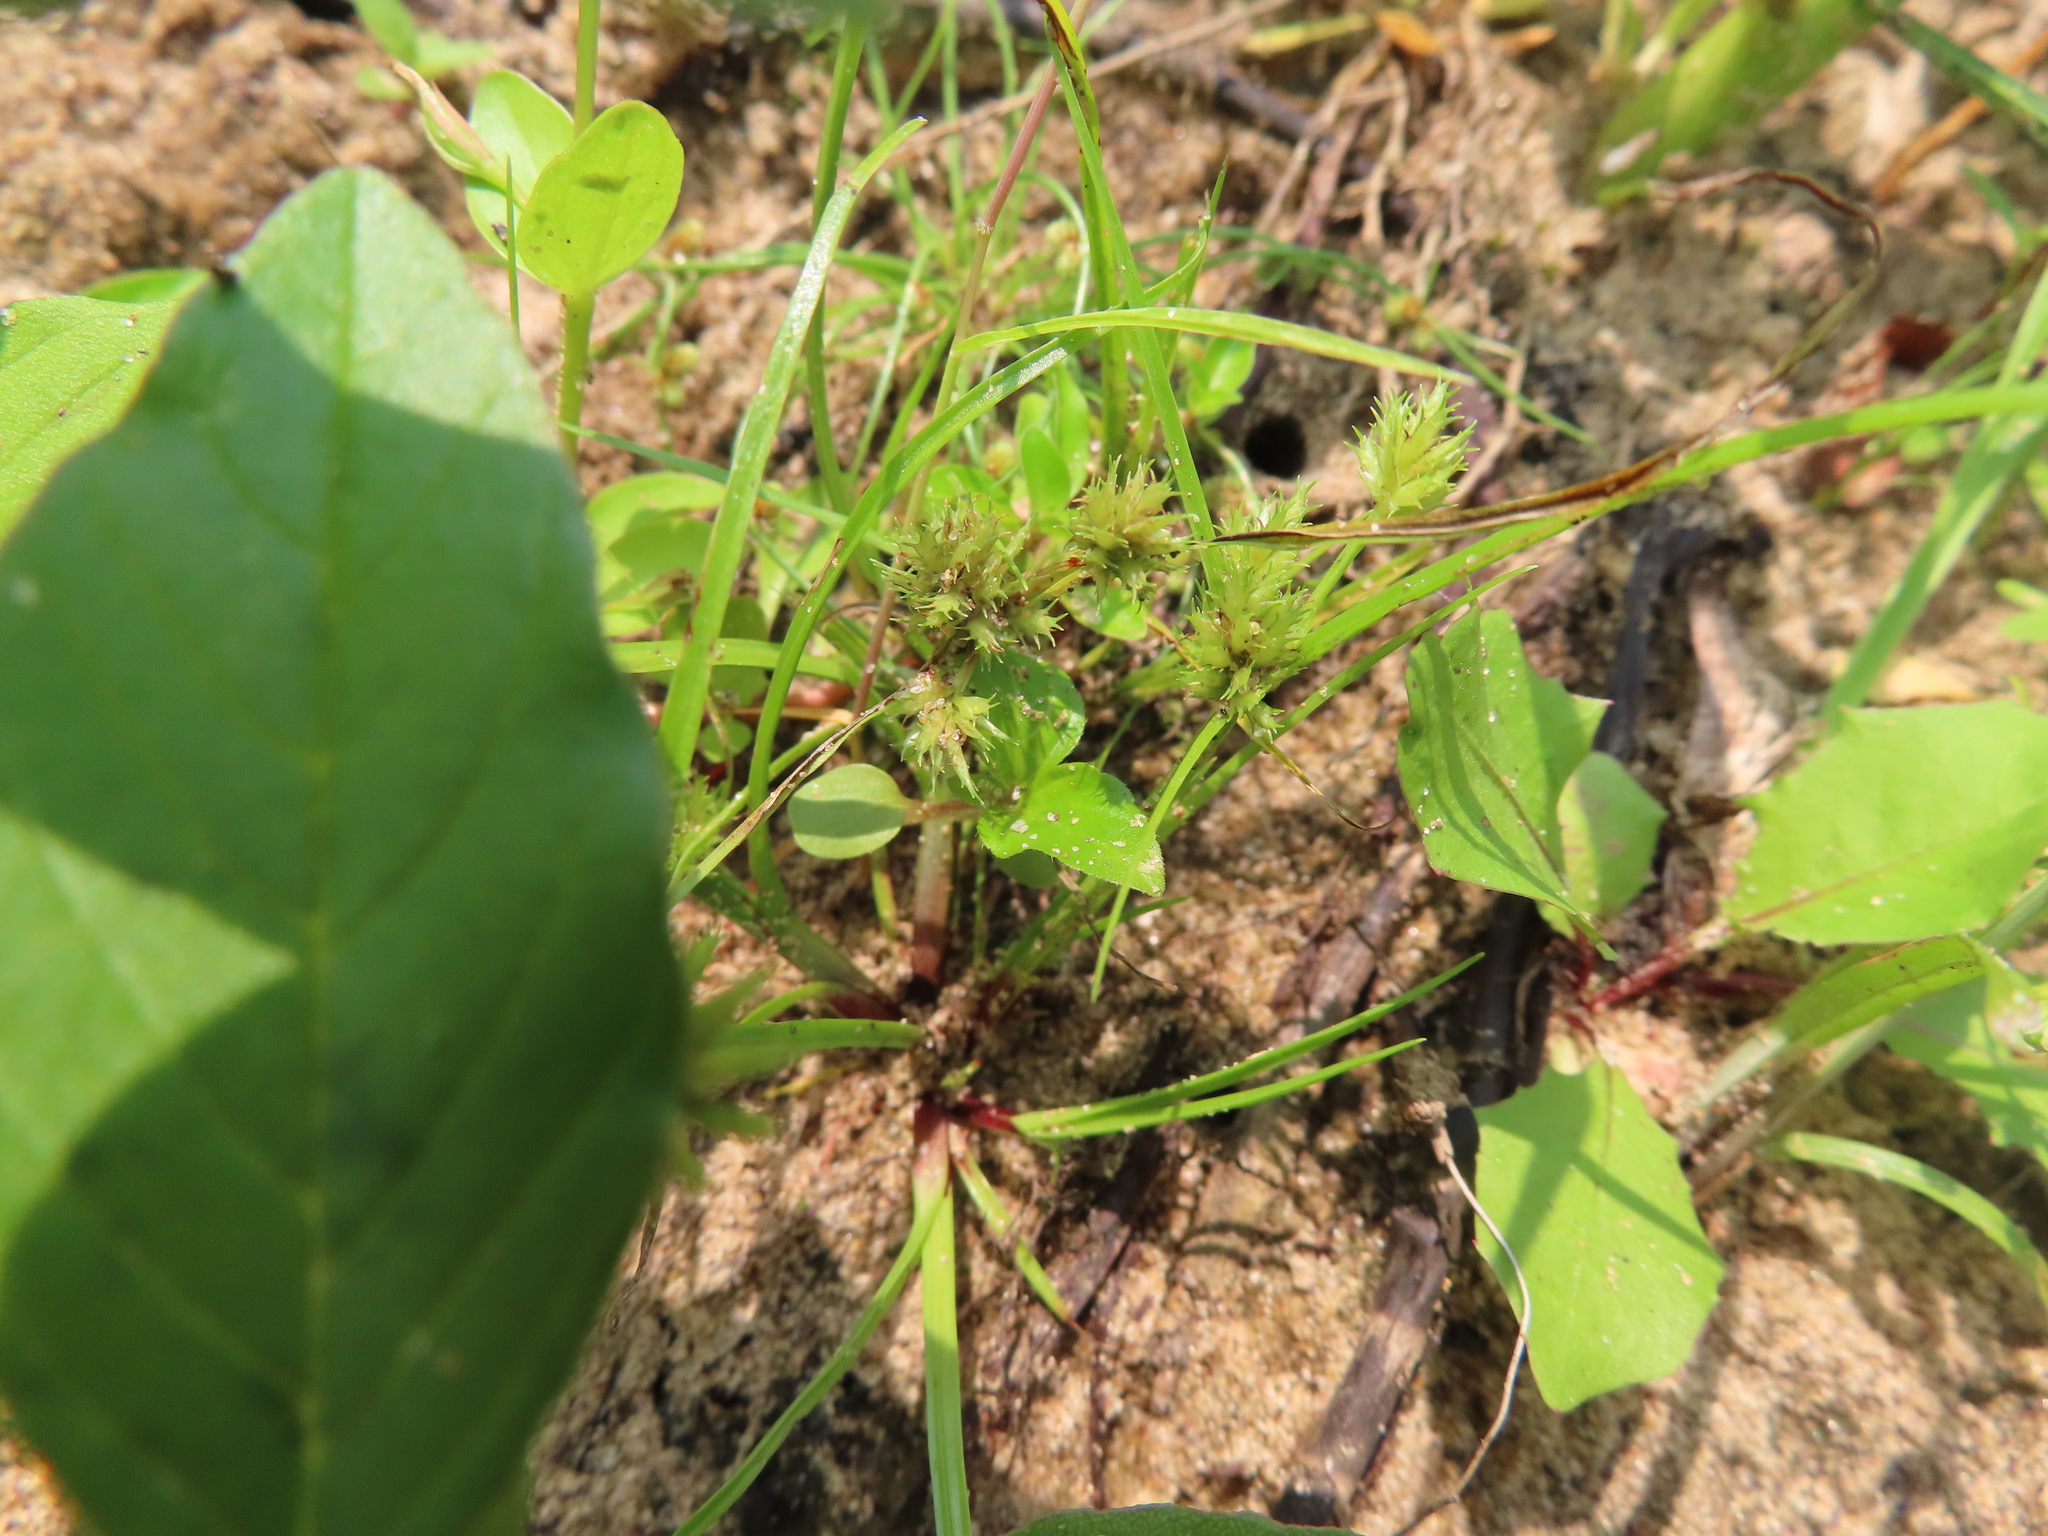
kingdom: Plantae
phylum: Tracheophyta
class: Liliopsida
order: Poales
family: Cyperaceae
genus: Cyperus
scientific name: Cyperus squarrosus
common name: Awned cyperus
